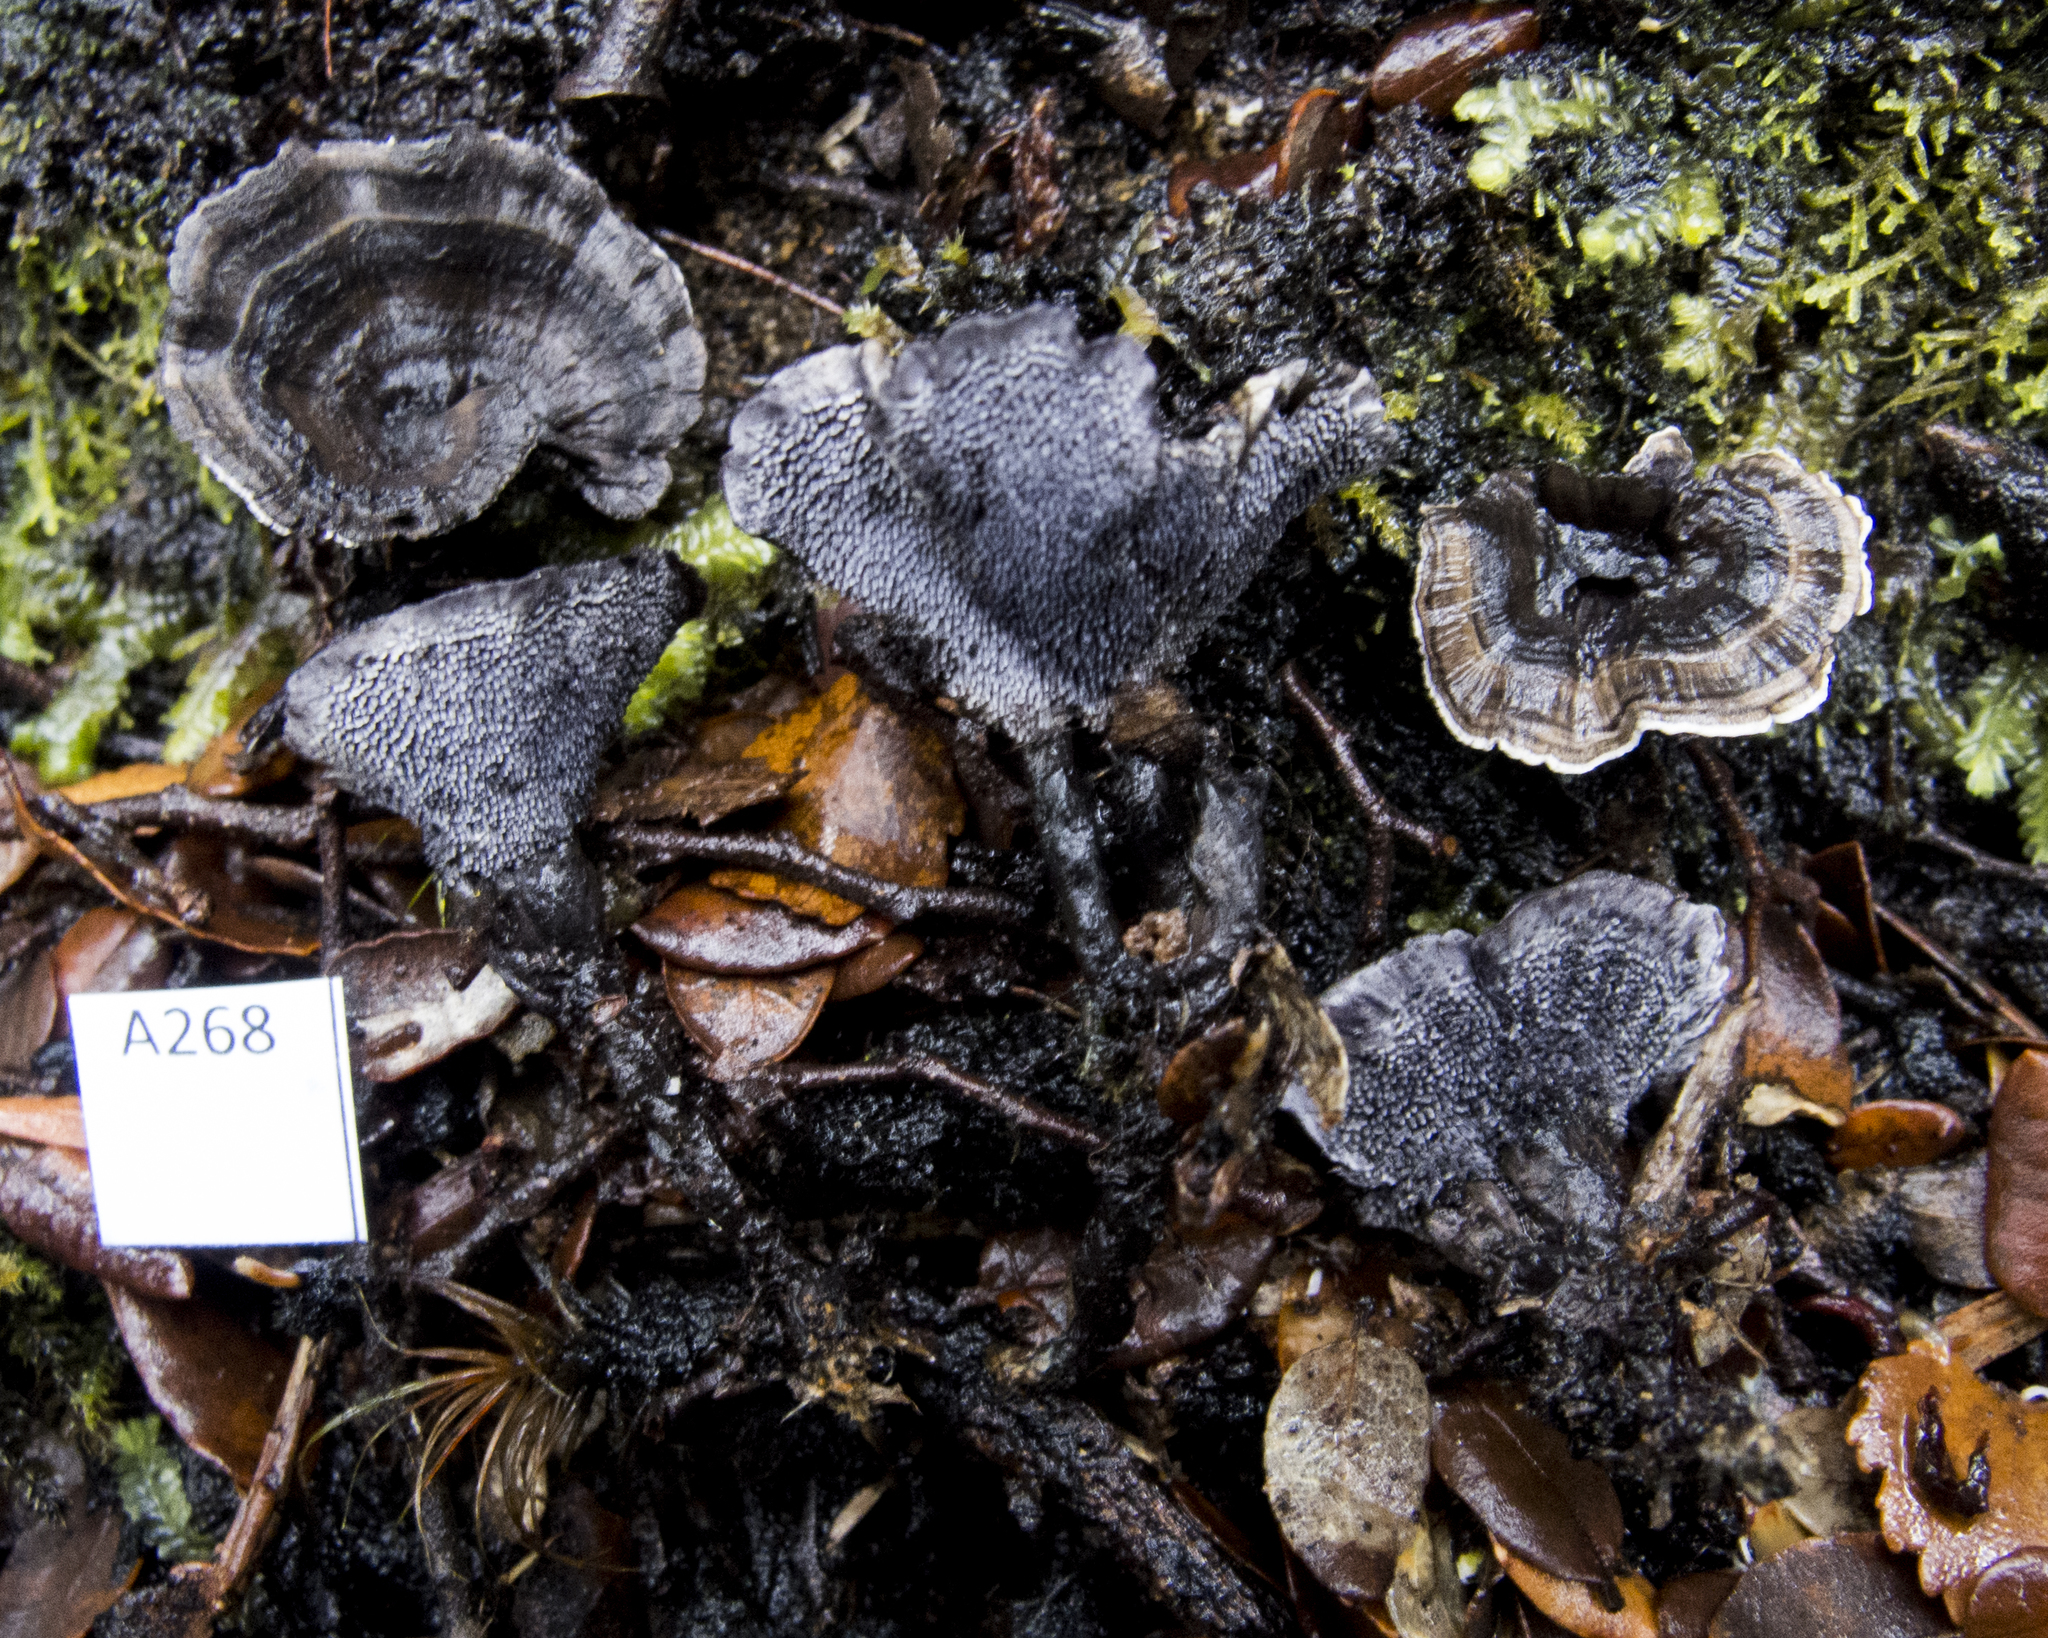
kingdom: Fungi
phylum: Basidiomycota
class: Agaricomycetes
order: Thelephorales
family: Thelephoraceae
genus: Phellodon
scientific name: Phellodon sinclairii
